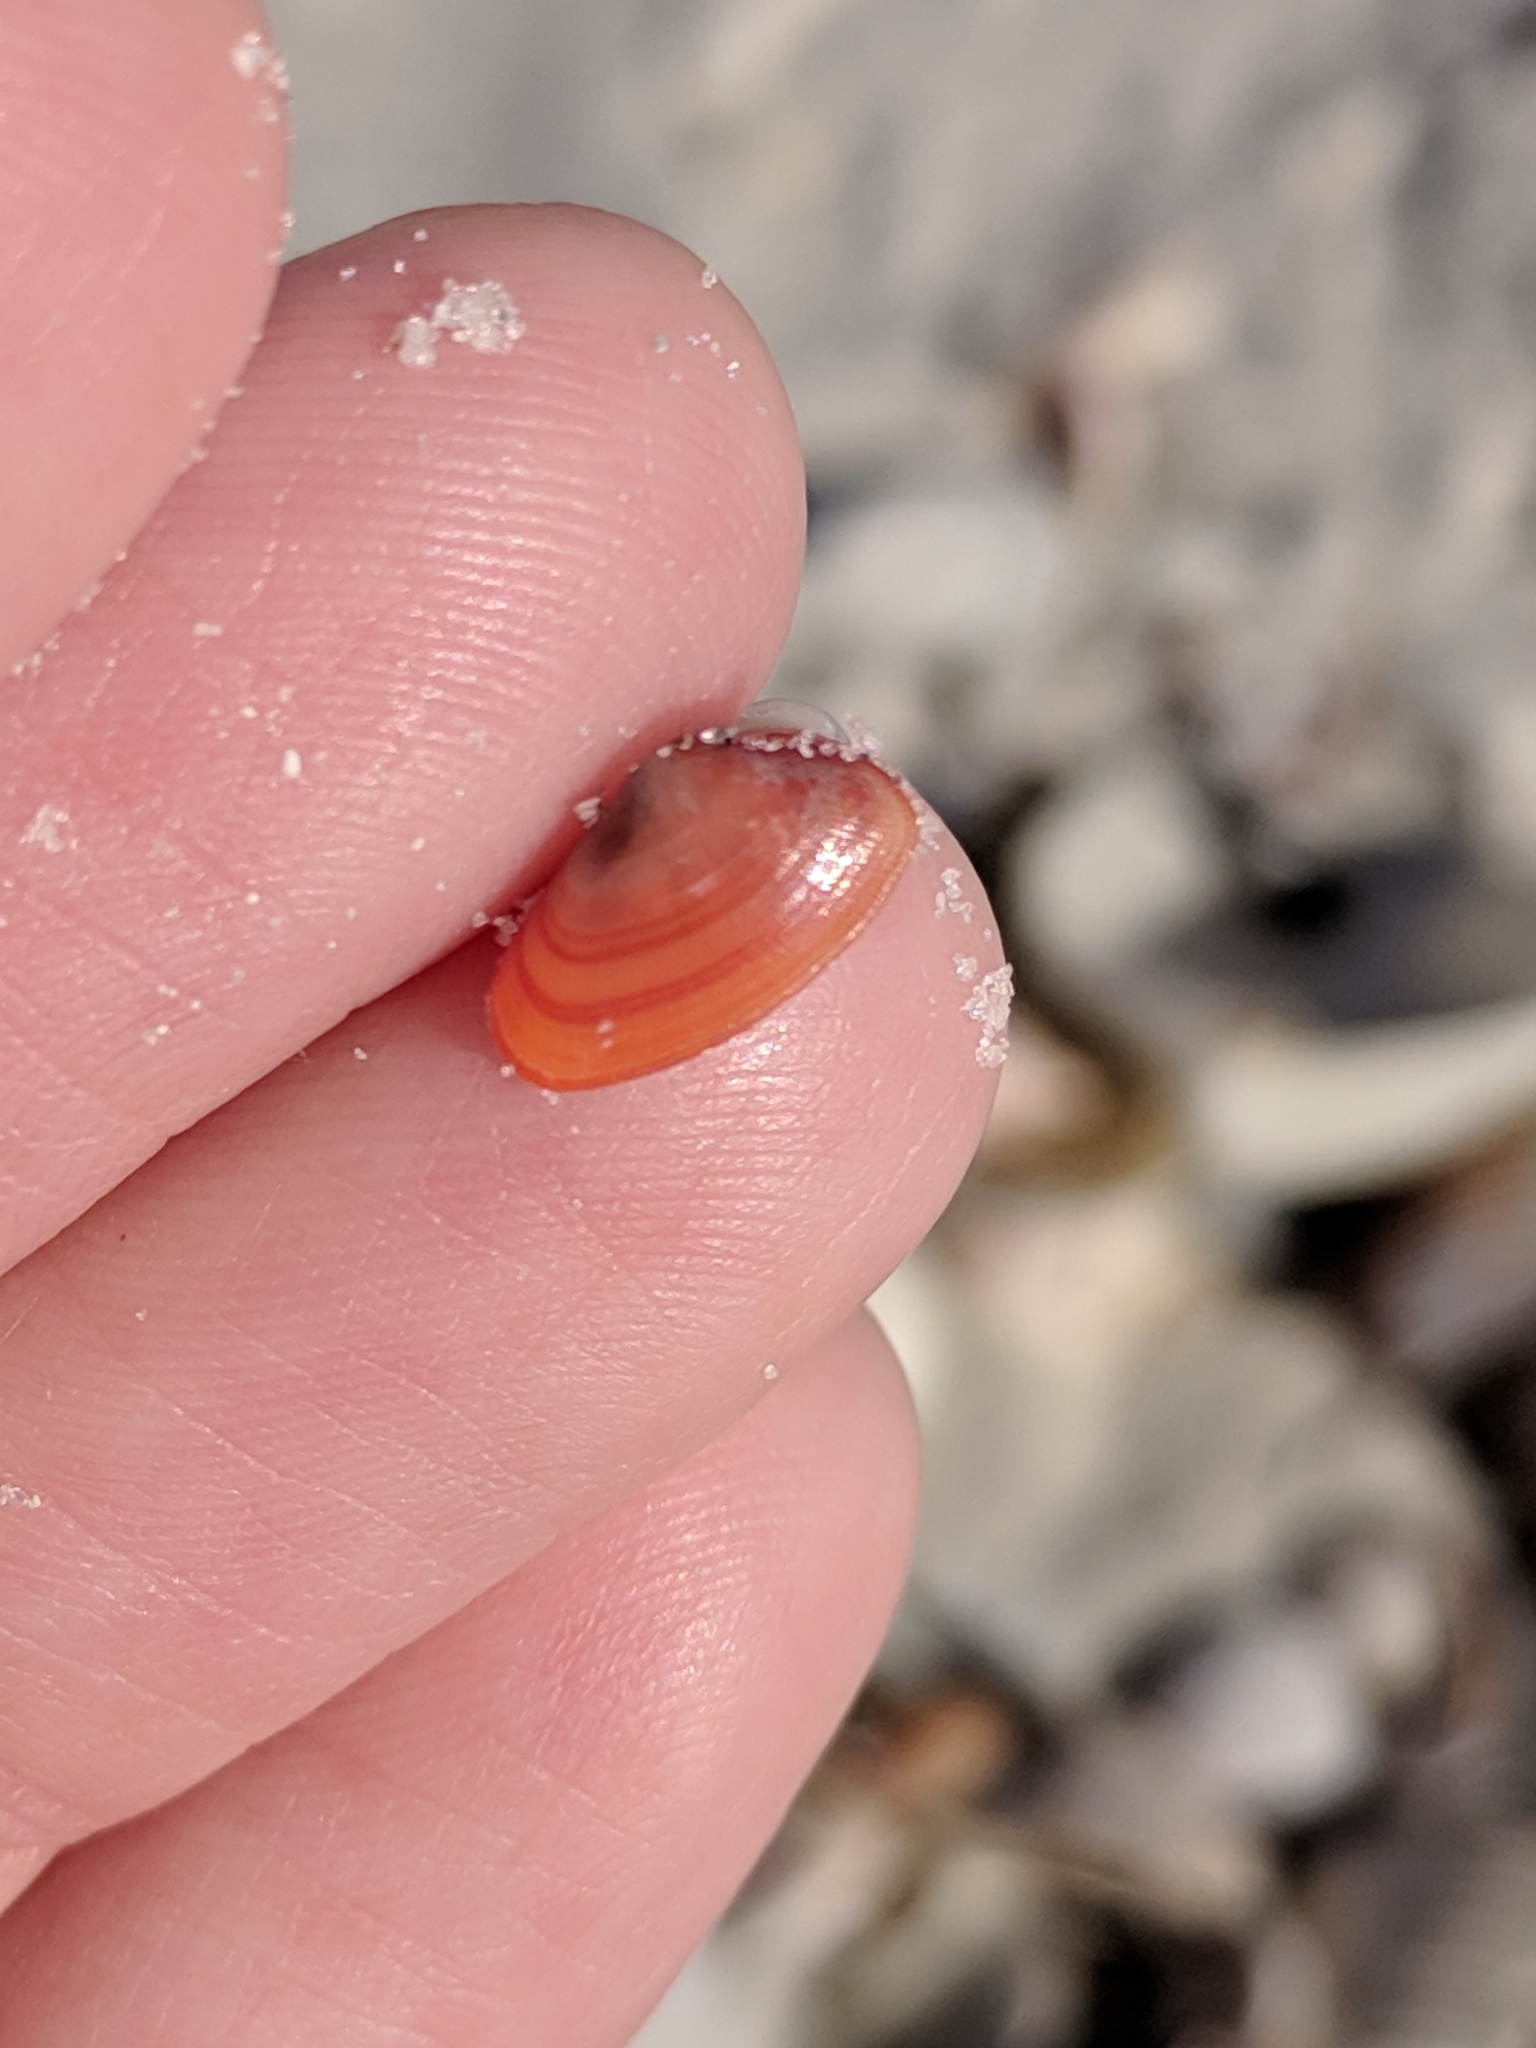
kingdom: Animalia
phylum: Mollusca
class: Bivalvia
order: Cardiida
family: Donacidae
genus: Donax
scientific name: Donax variabilis
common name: Butterfly shell
